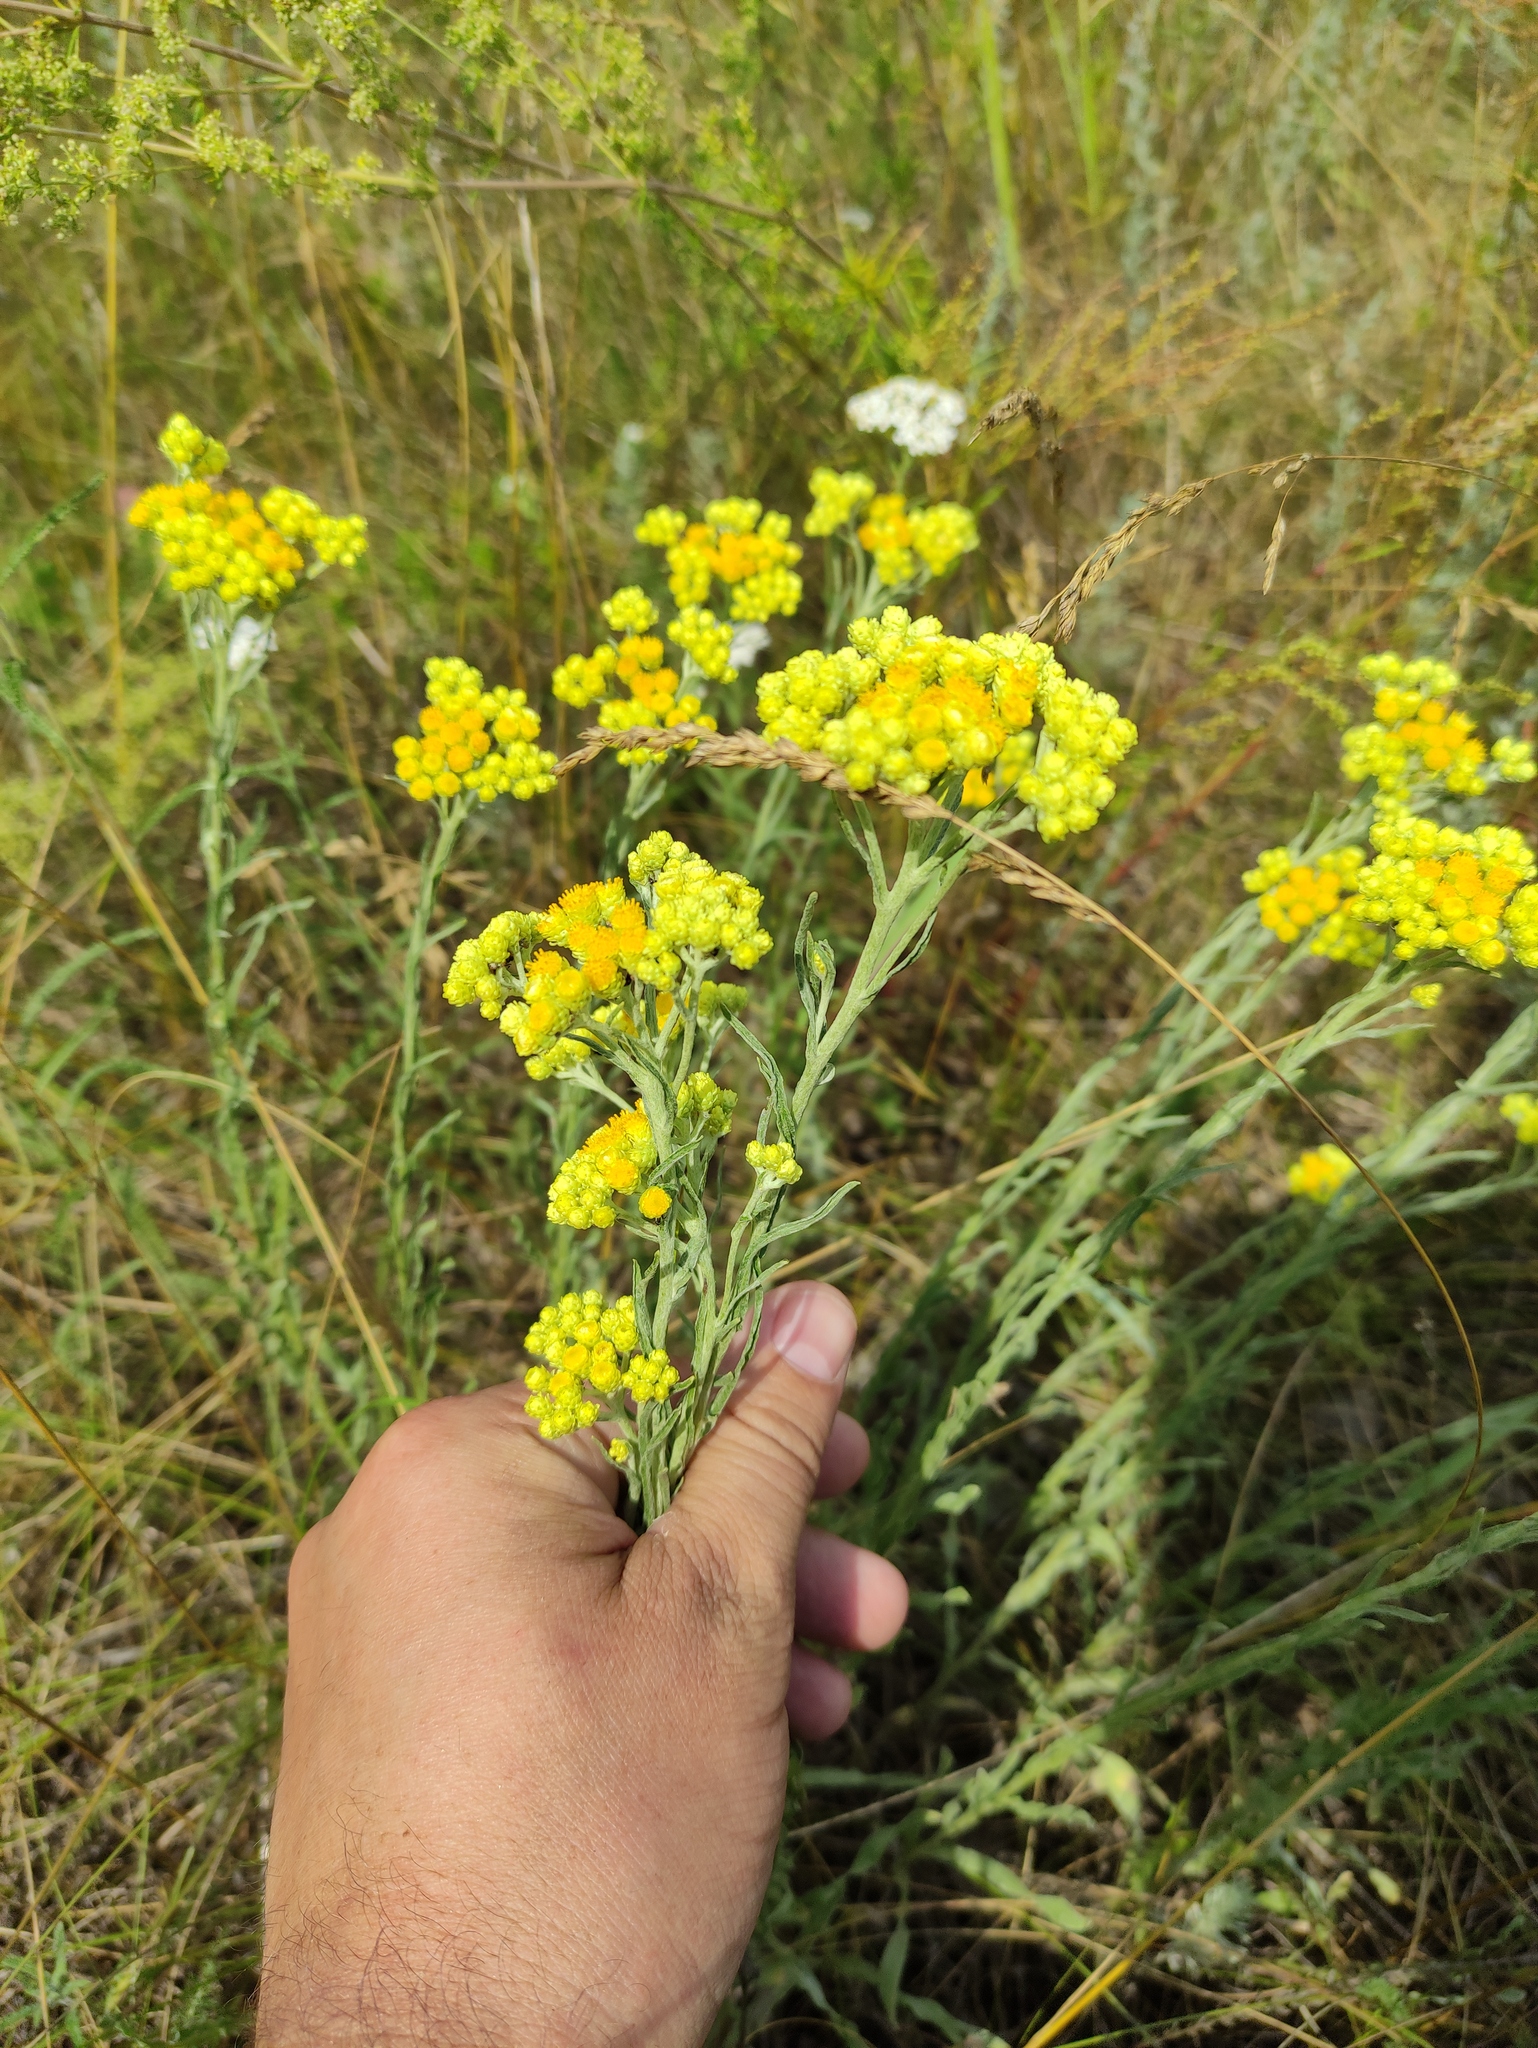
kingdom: Plantae
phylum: Tracheophyta
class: Magnoliopsida
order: Asterales
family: Asteraceae
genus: Helichrysum
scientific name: Helichrysum arenarium
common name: Strawflower
